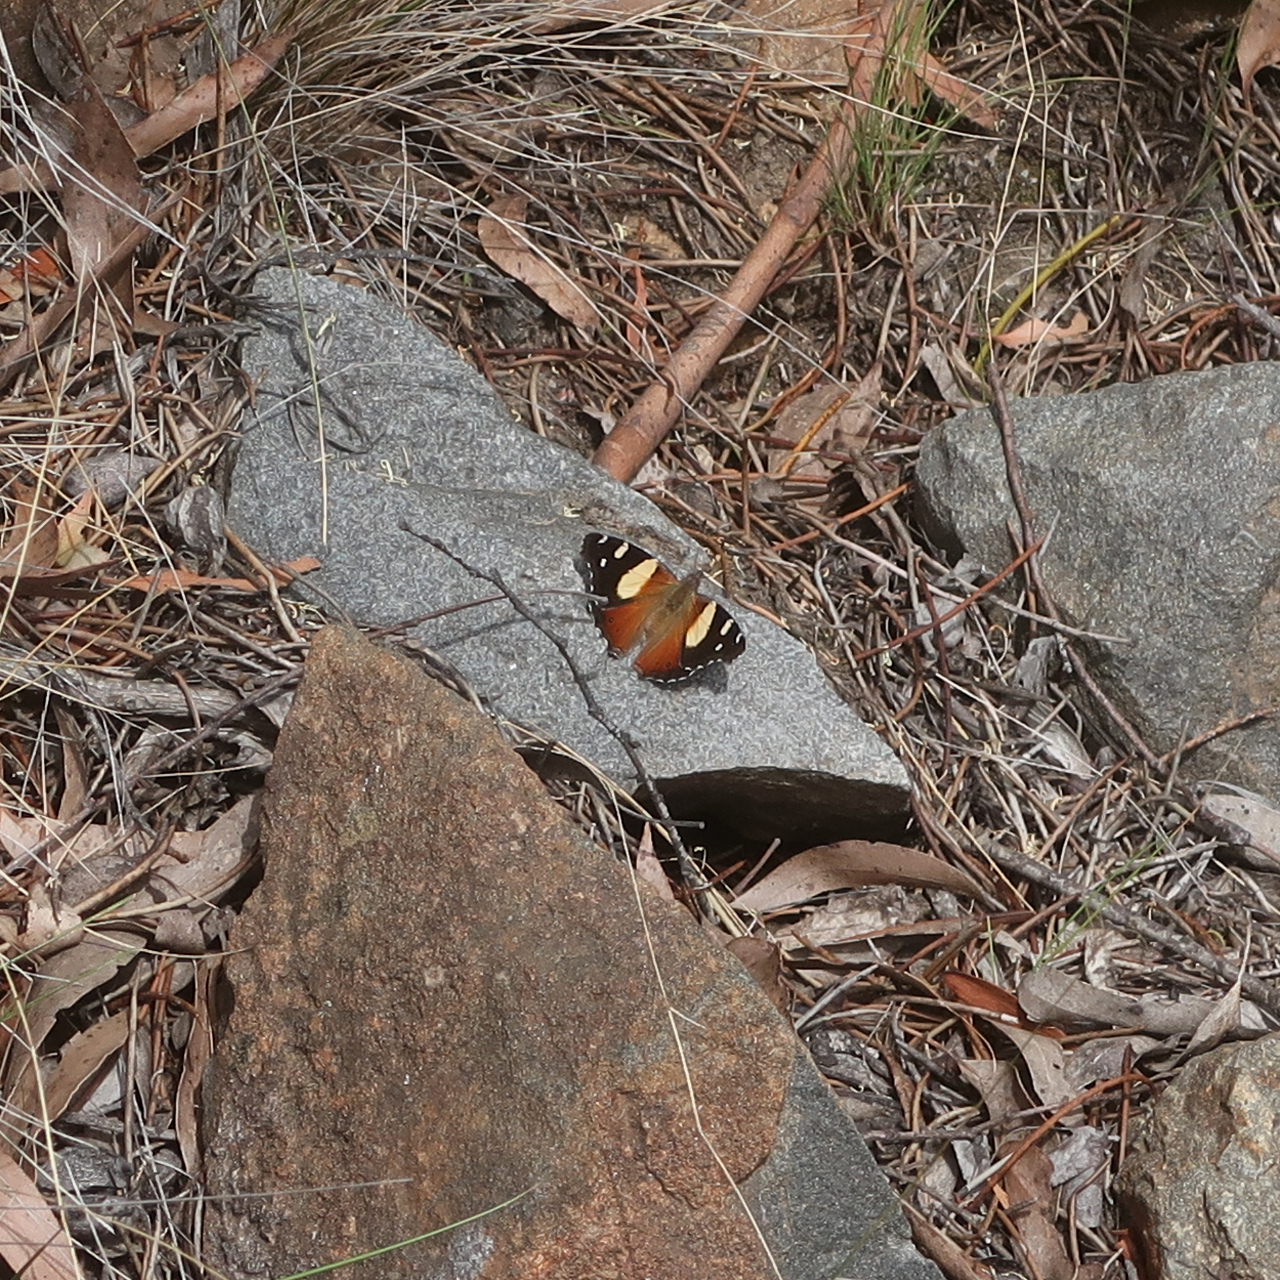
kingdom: Animalia
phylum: Arthropoda
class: Insecta
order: Lepidoptera
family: Nymphalidae
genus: Vanessa
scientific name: Vanessa itea
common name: Yellow admiral
